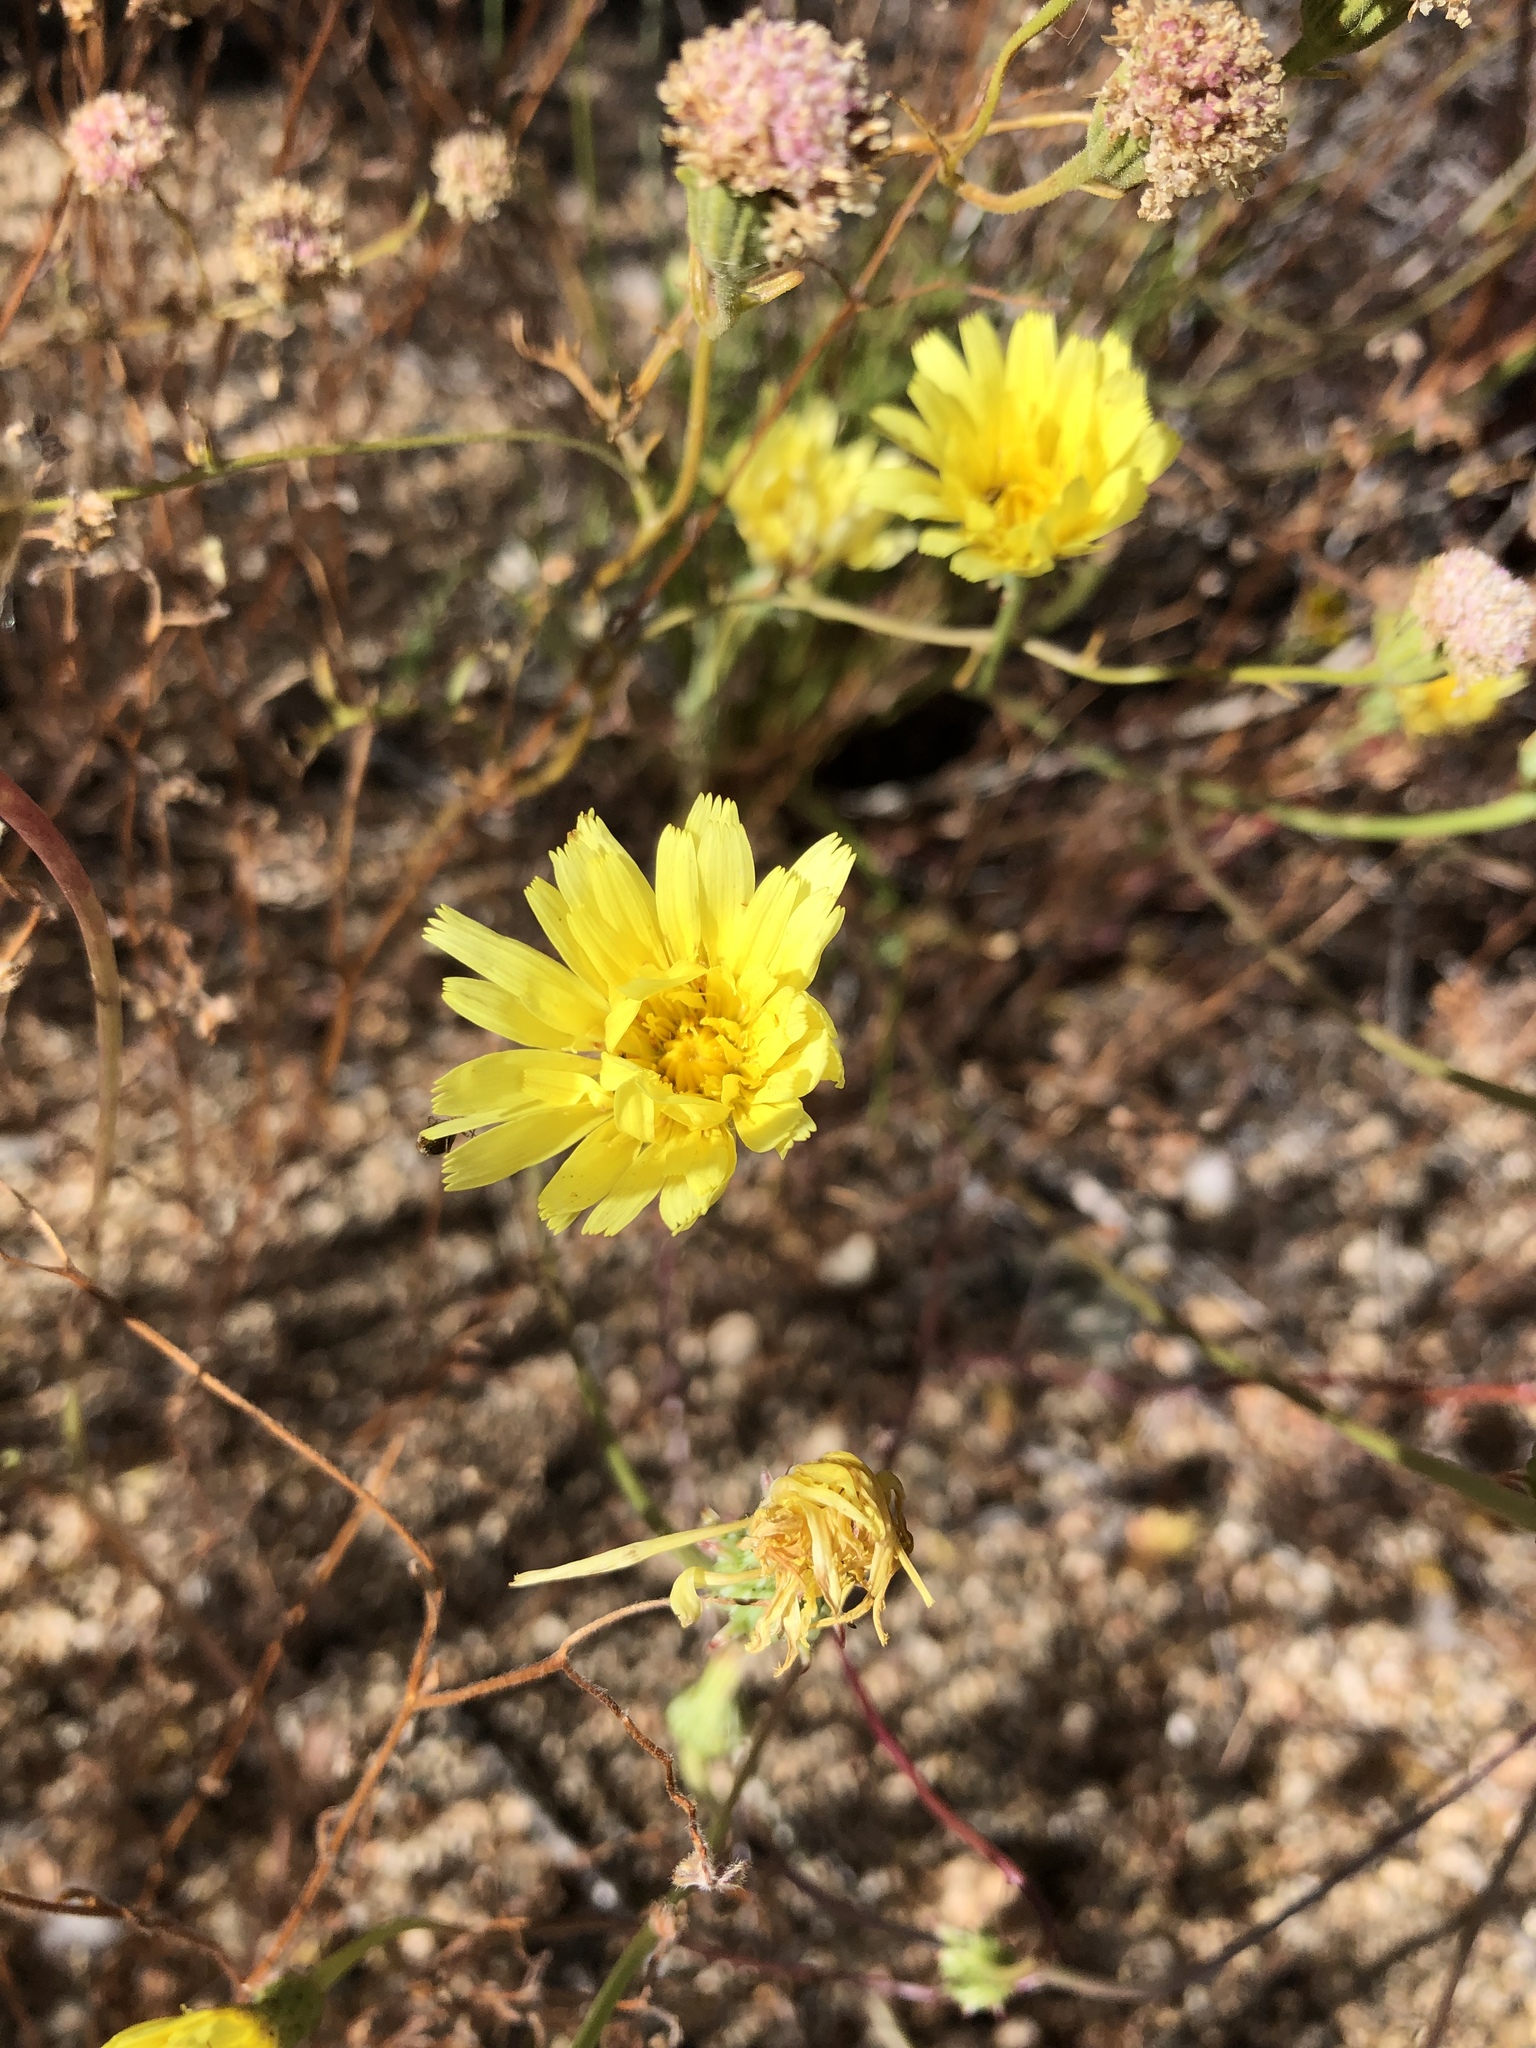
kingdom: Plantae
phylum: Tracheophyta
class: Magnoliopsida
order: Asterales
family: Asteraceae
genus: Malacothrix
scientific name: Malacothrix glabrata
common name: Smooth desert-dandelion
